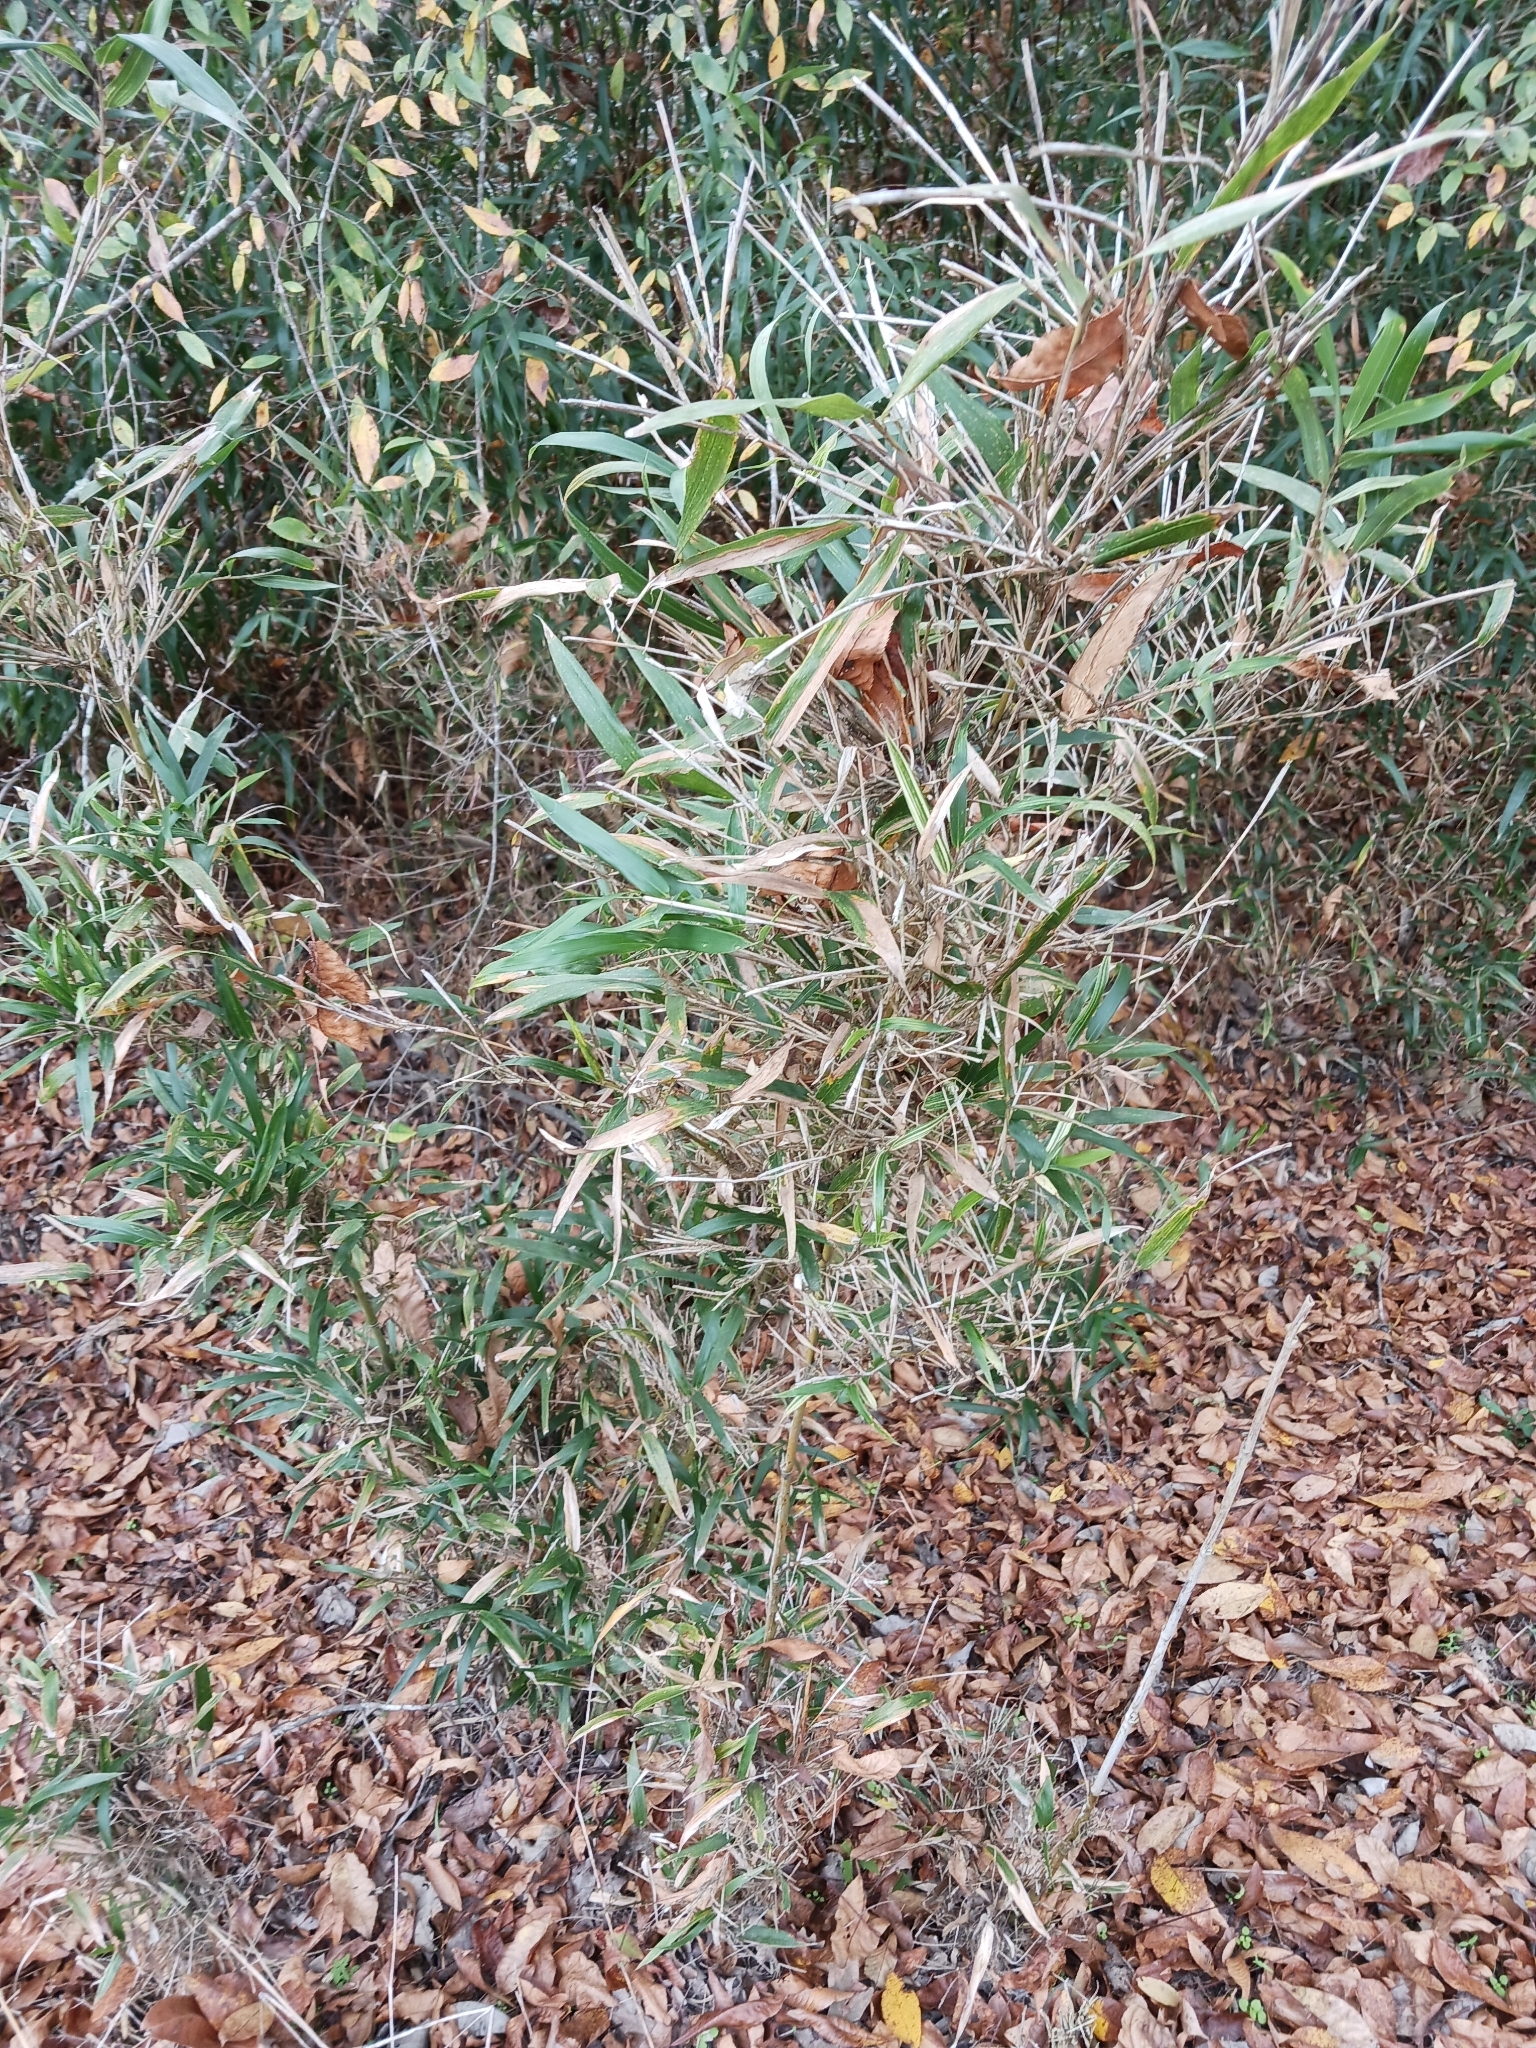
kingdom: Plantae
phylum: Tracheophyta
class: Liliopsida
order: Poales
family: Poaceae
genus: Arundinaria
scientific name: Arundinaria gigantea
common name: Giant cane
